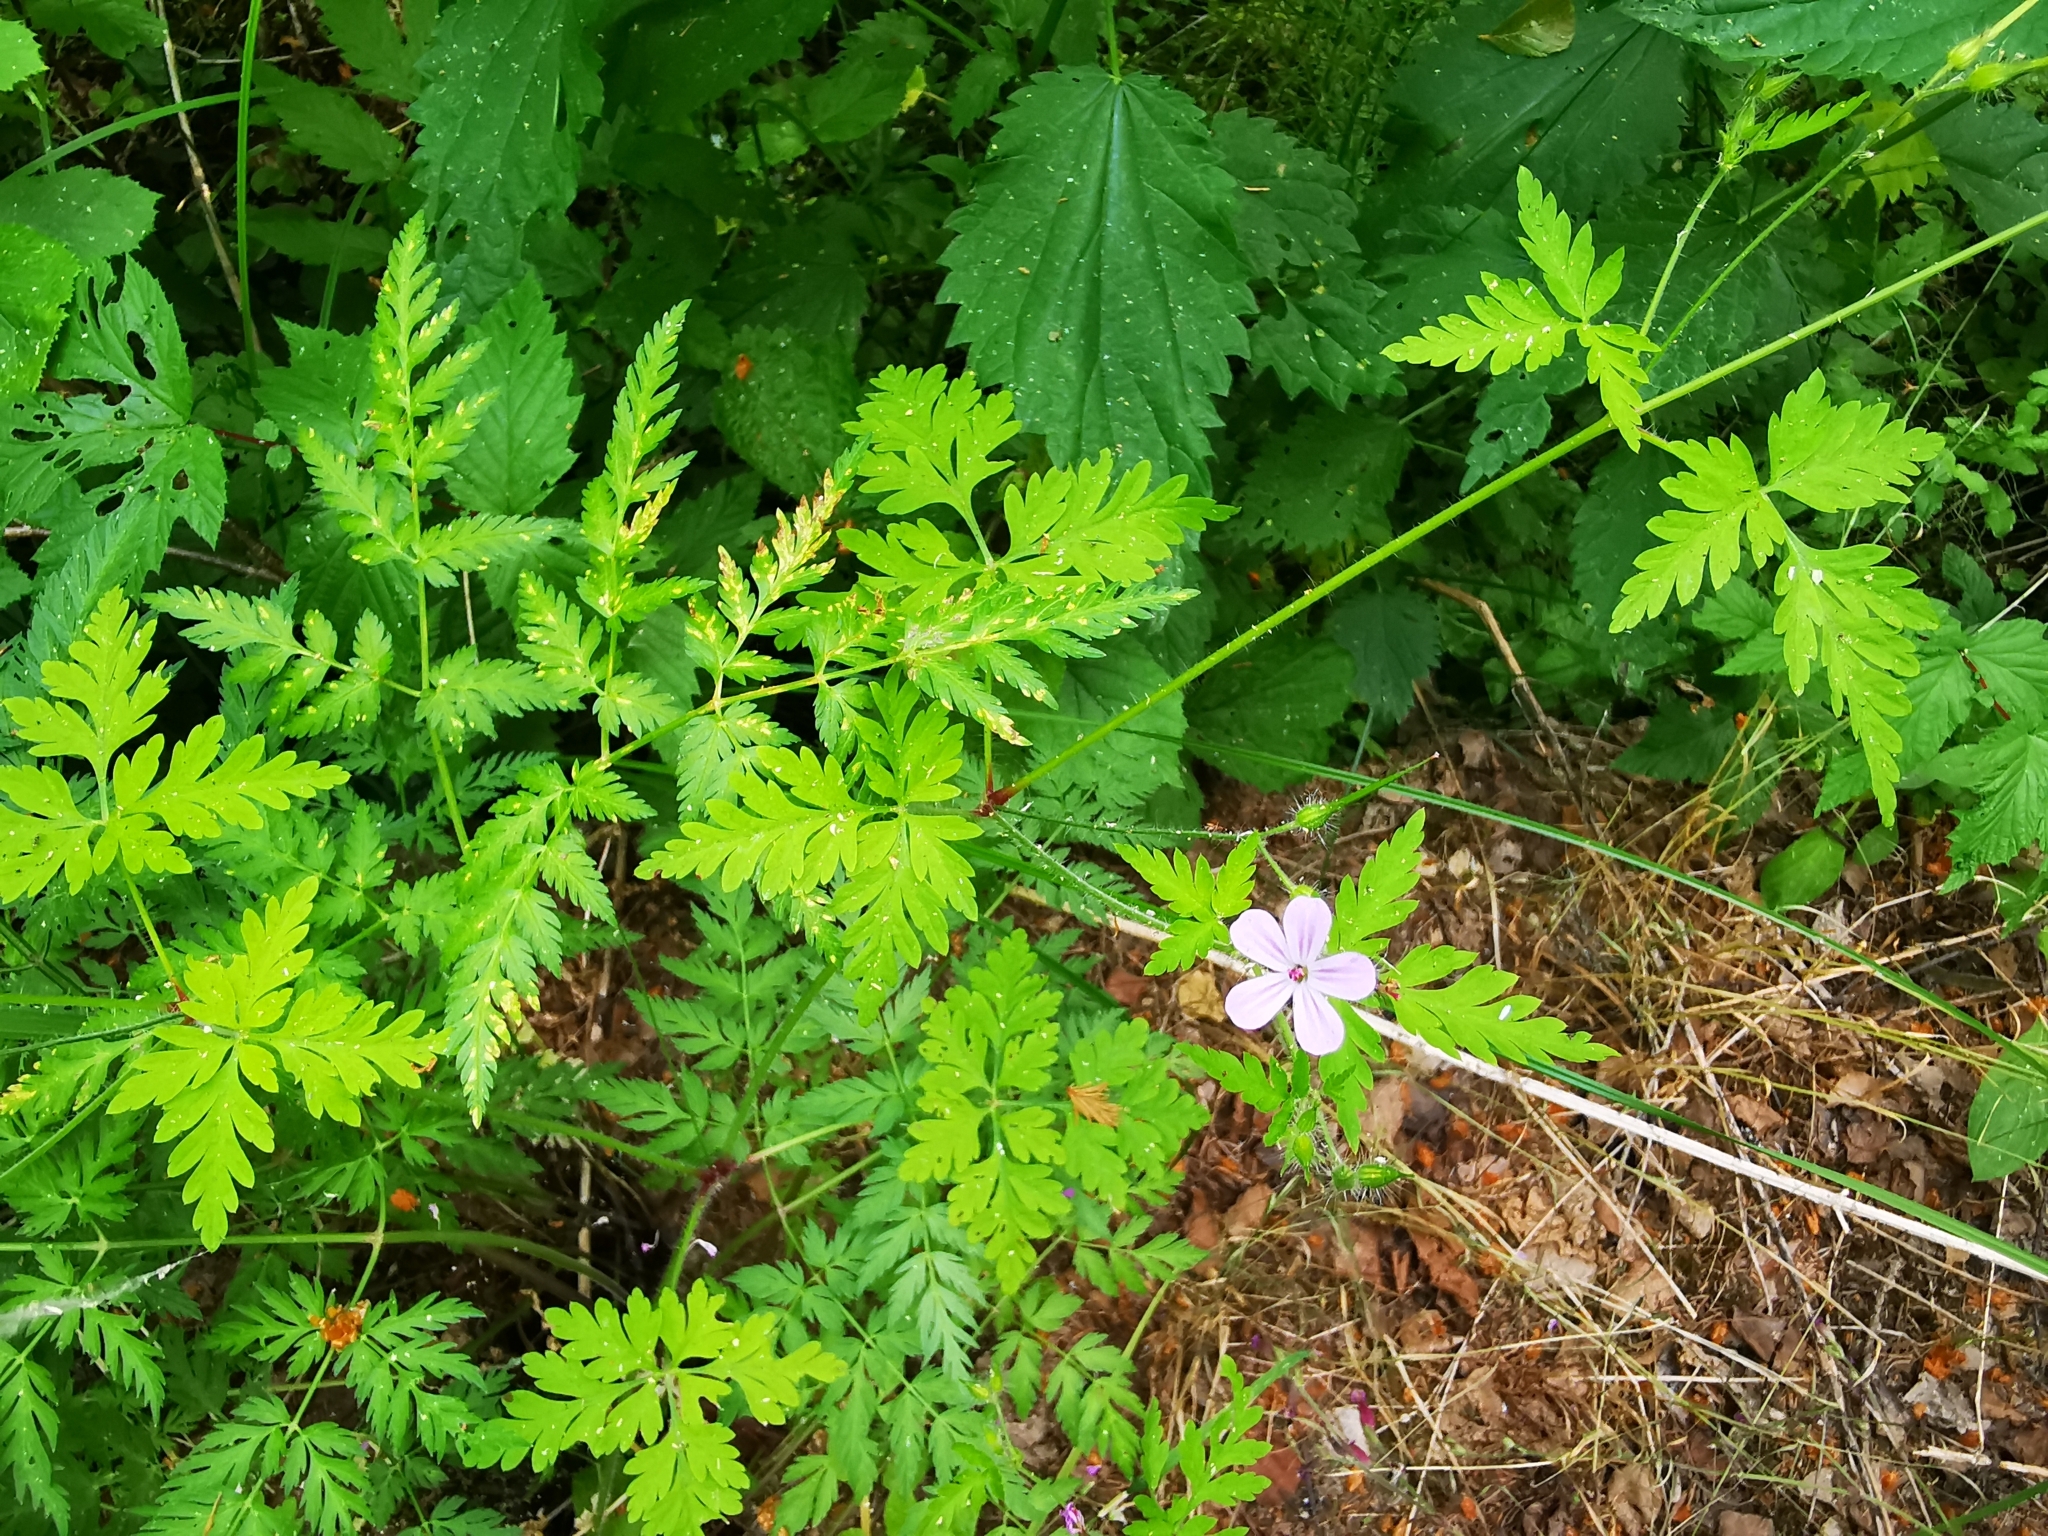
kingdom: Plantae
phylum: Tracheophyta
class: Magnoliopsida
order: Geraniales
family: Geraniaceae
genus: Geranium
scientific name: Geranium robertianum
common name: Herb-robert
